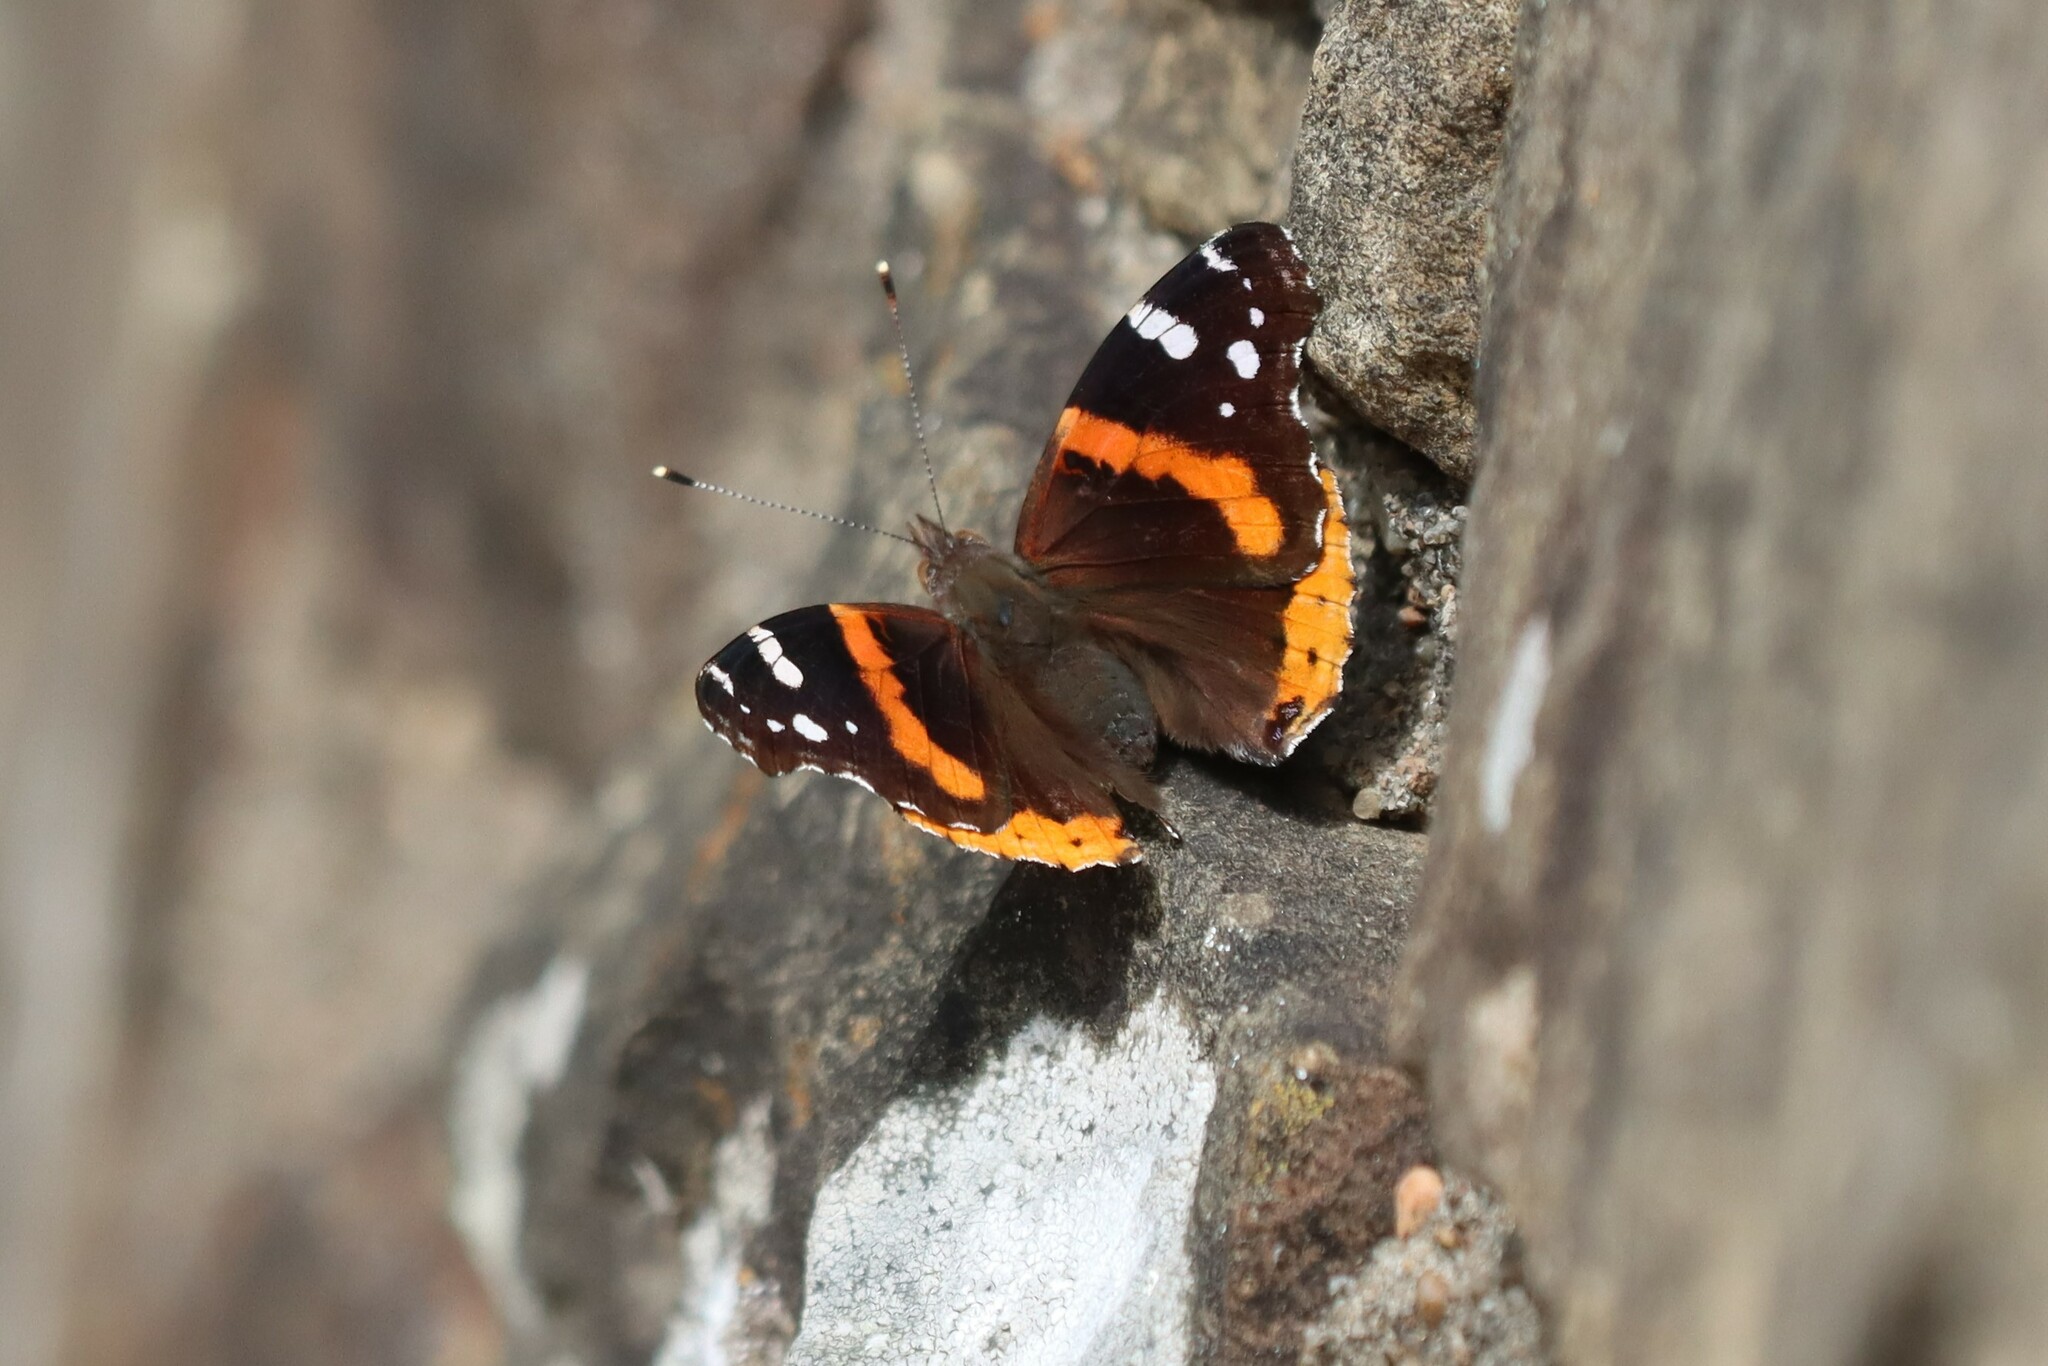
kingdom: Animalia
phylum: Arthropoda
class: Insecta
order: Lepidoptera
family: Nymphalidae
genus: Vanessa
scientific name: Vanessa atalanta
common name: Red admiral
